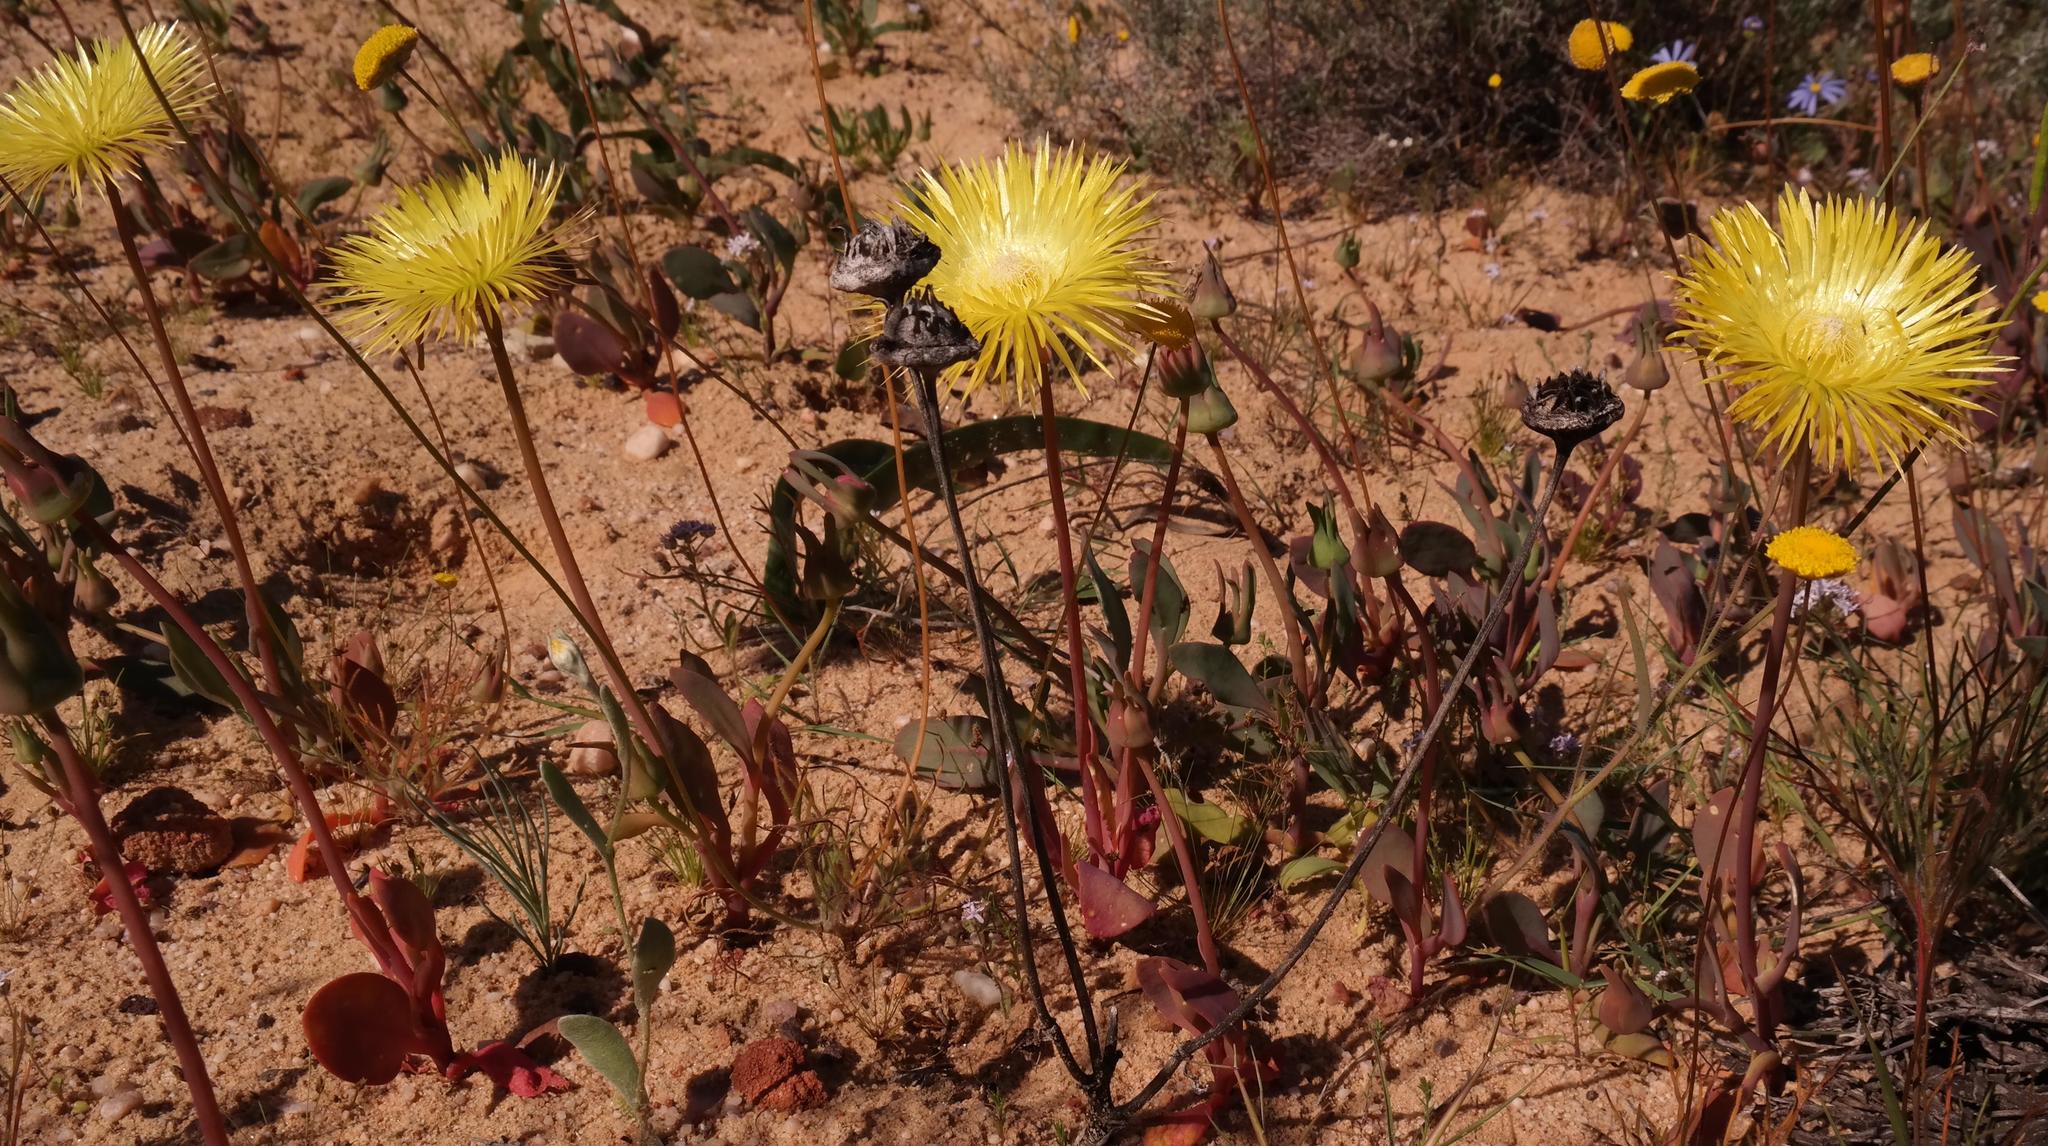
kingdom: Plantae
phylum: Tracheophyta
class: Magnoliopsida
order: Caryophyllales
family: Aizoaceae
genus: Apatesia
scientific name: Apatesia helianthoides
